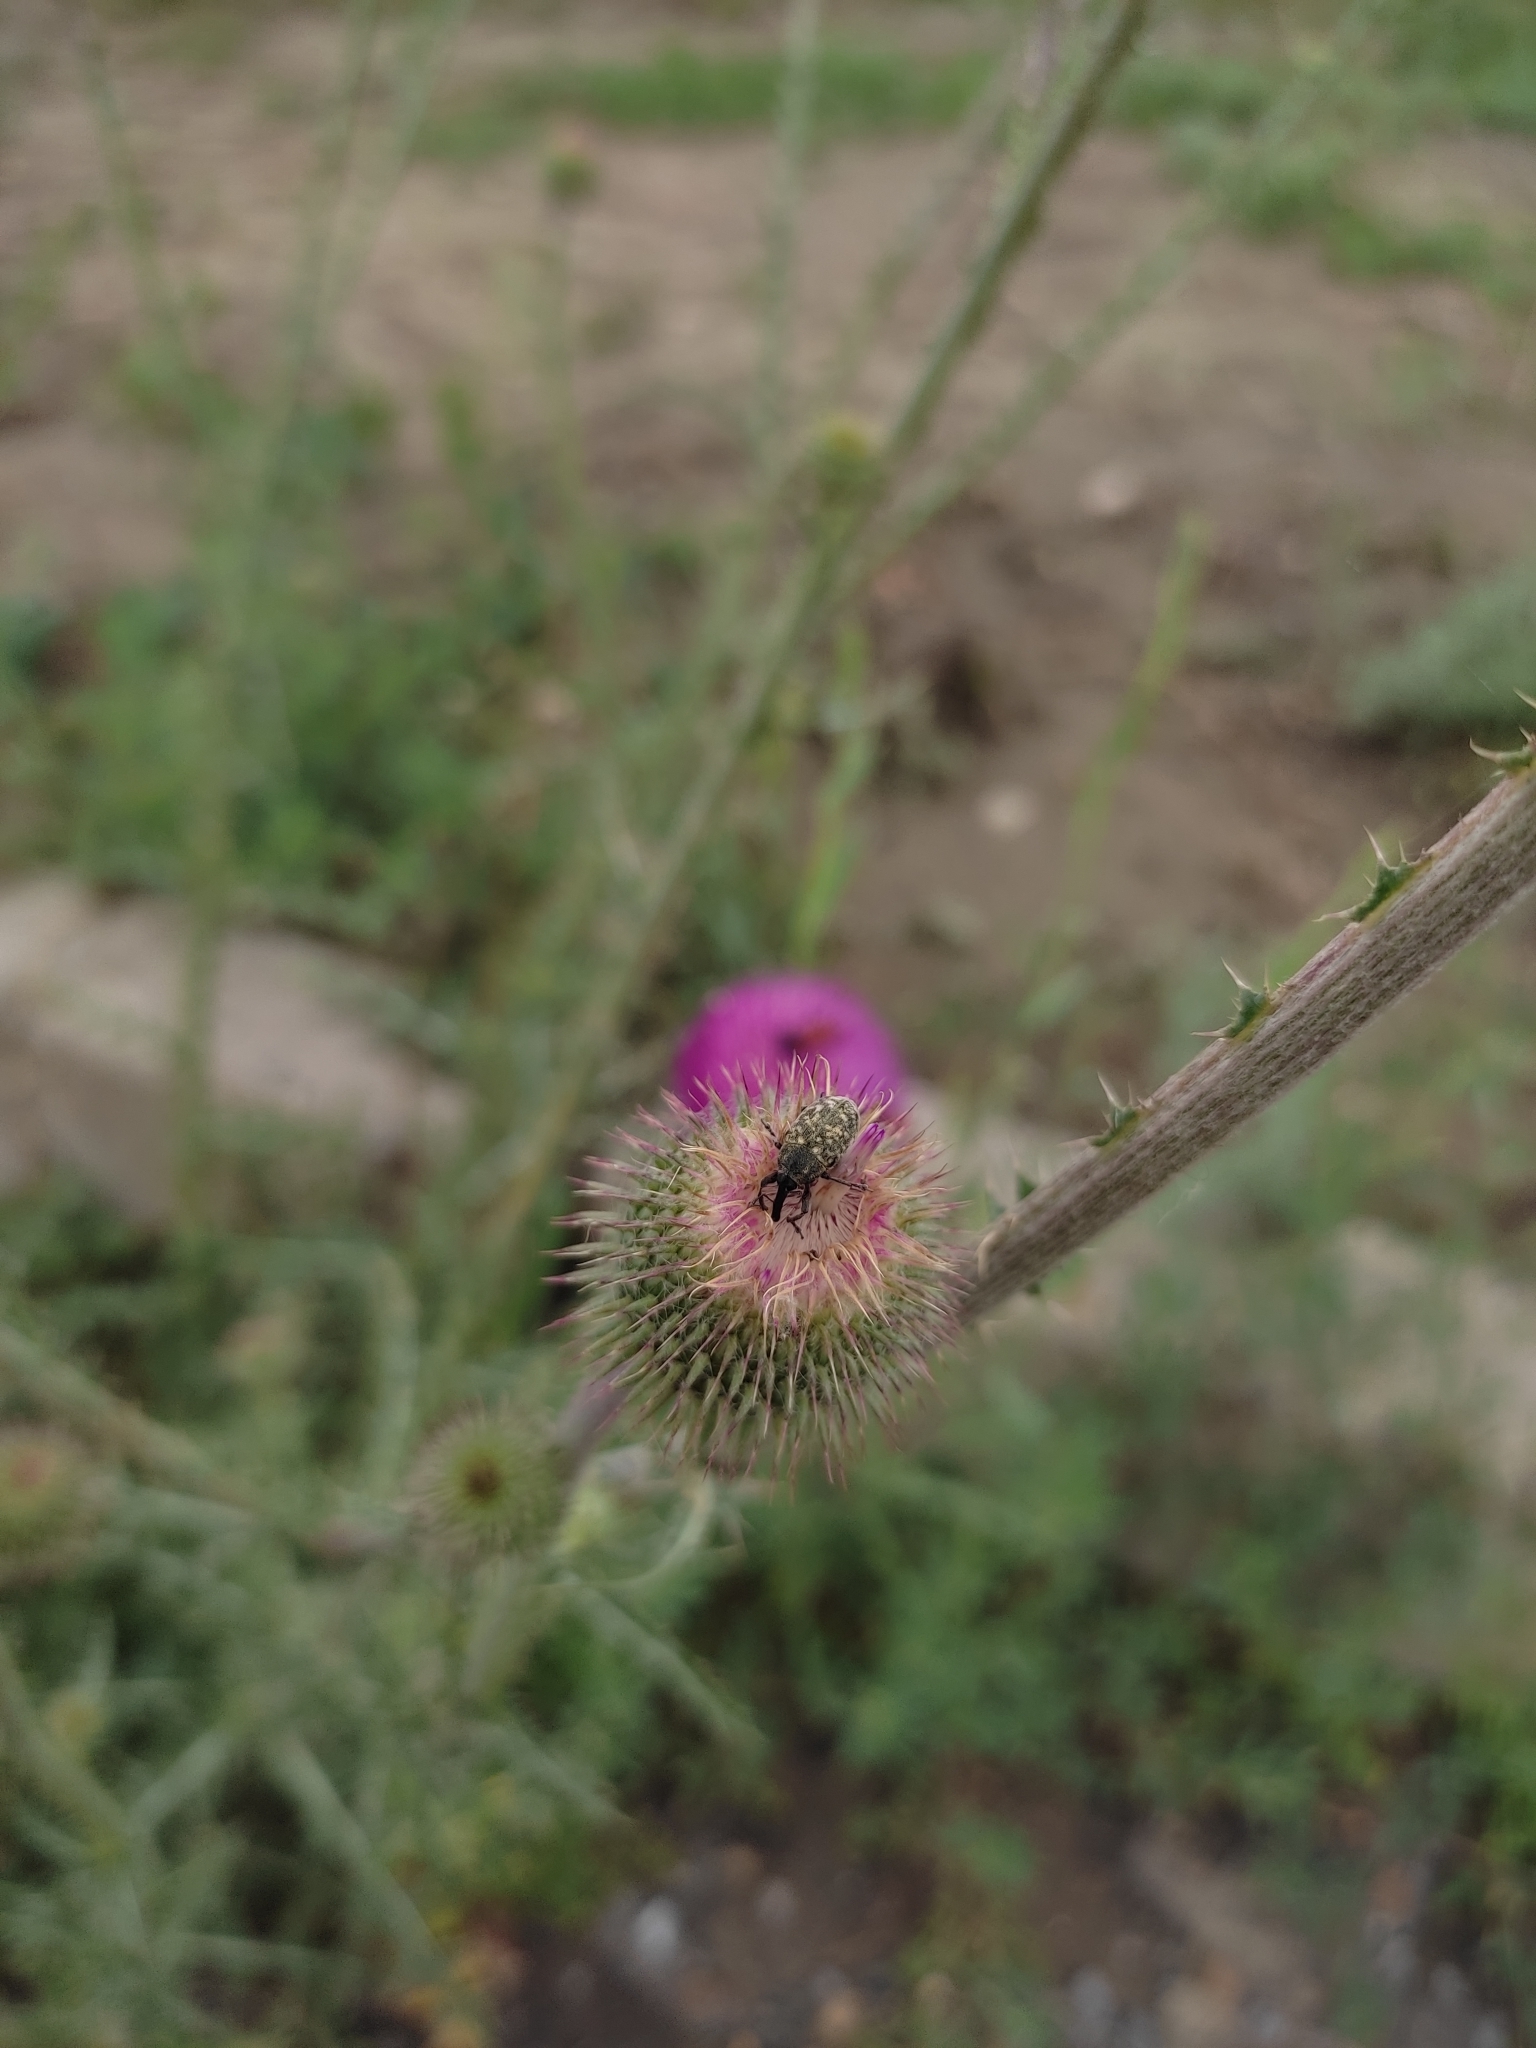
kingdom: Animalia
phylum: Arthropoda
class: Insecta
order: Coleoptera
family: Curculionidae
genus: Larinus
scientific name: Larinus iaceae
